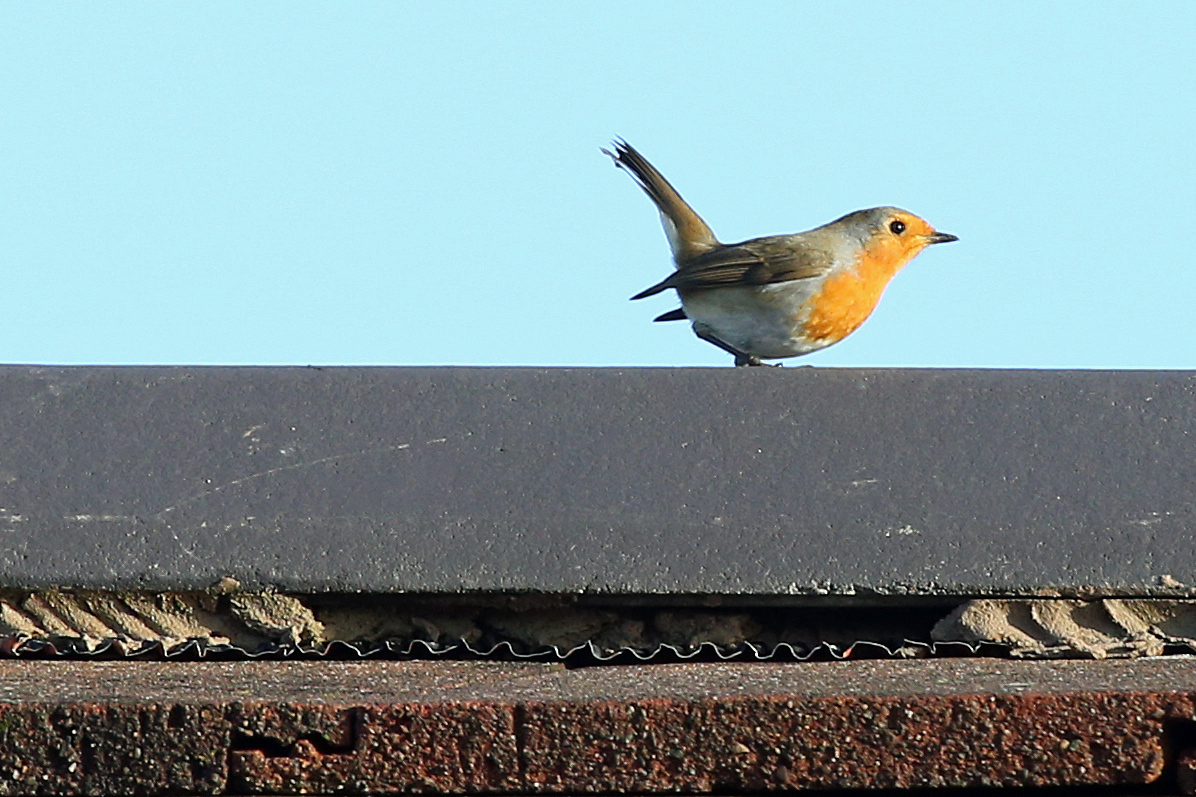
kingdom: Animalia
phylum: Chordata
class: Aves
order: Passeriformes
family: Muscicapidae
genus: Erithacus
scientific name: Erithacus rubecula
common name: European robin
